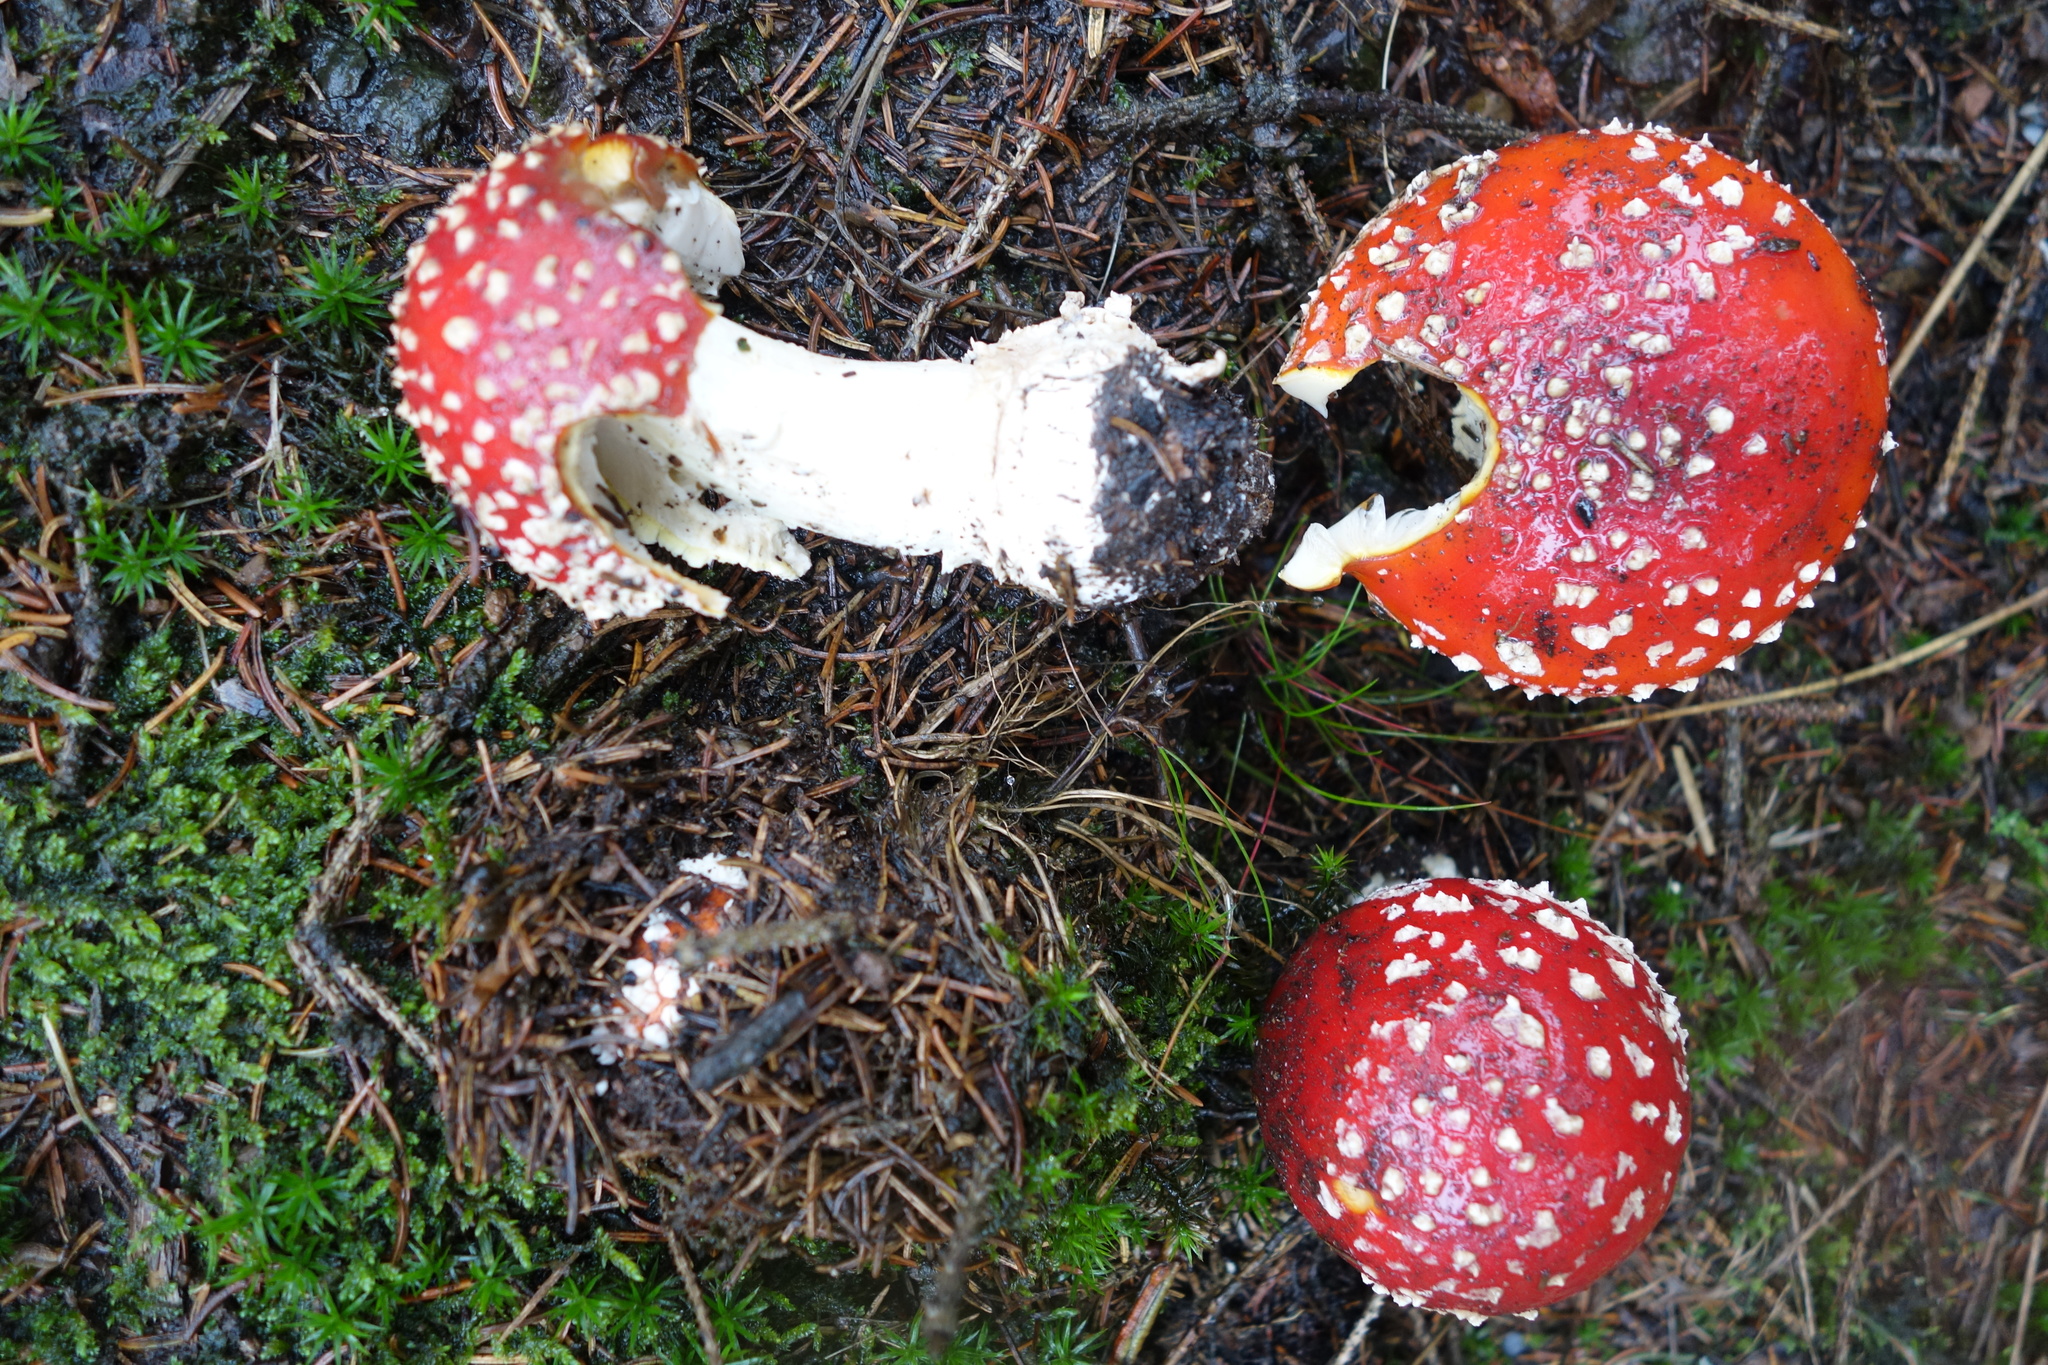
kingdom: Fungi
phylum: Basidiomycota
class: Agaricomycetes
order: Agaricales
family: Amanitaceae
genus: Amanita
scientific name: Amanita muscaria
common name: Fly agaric
